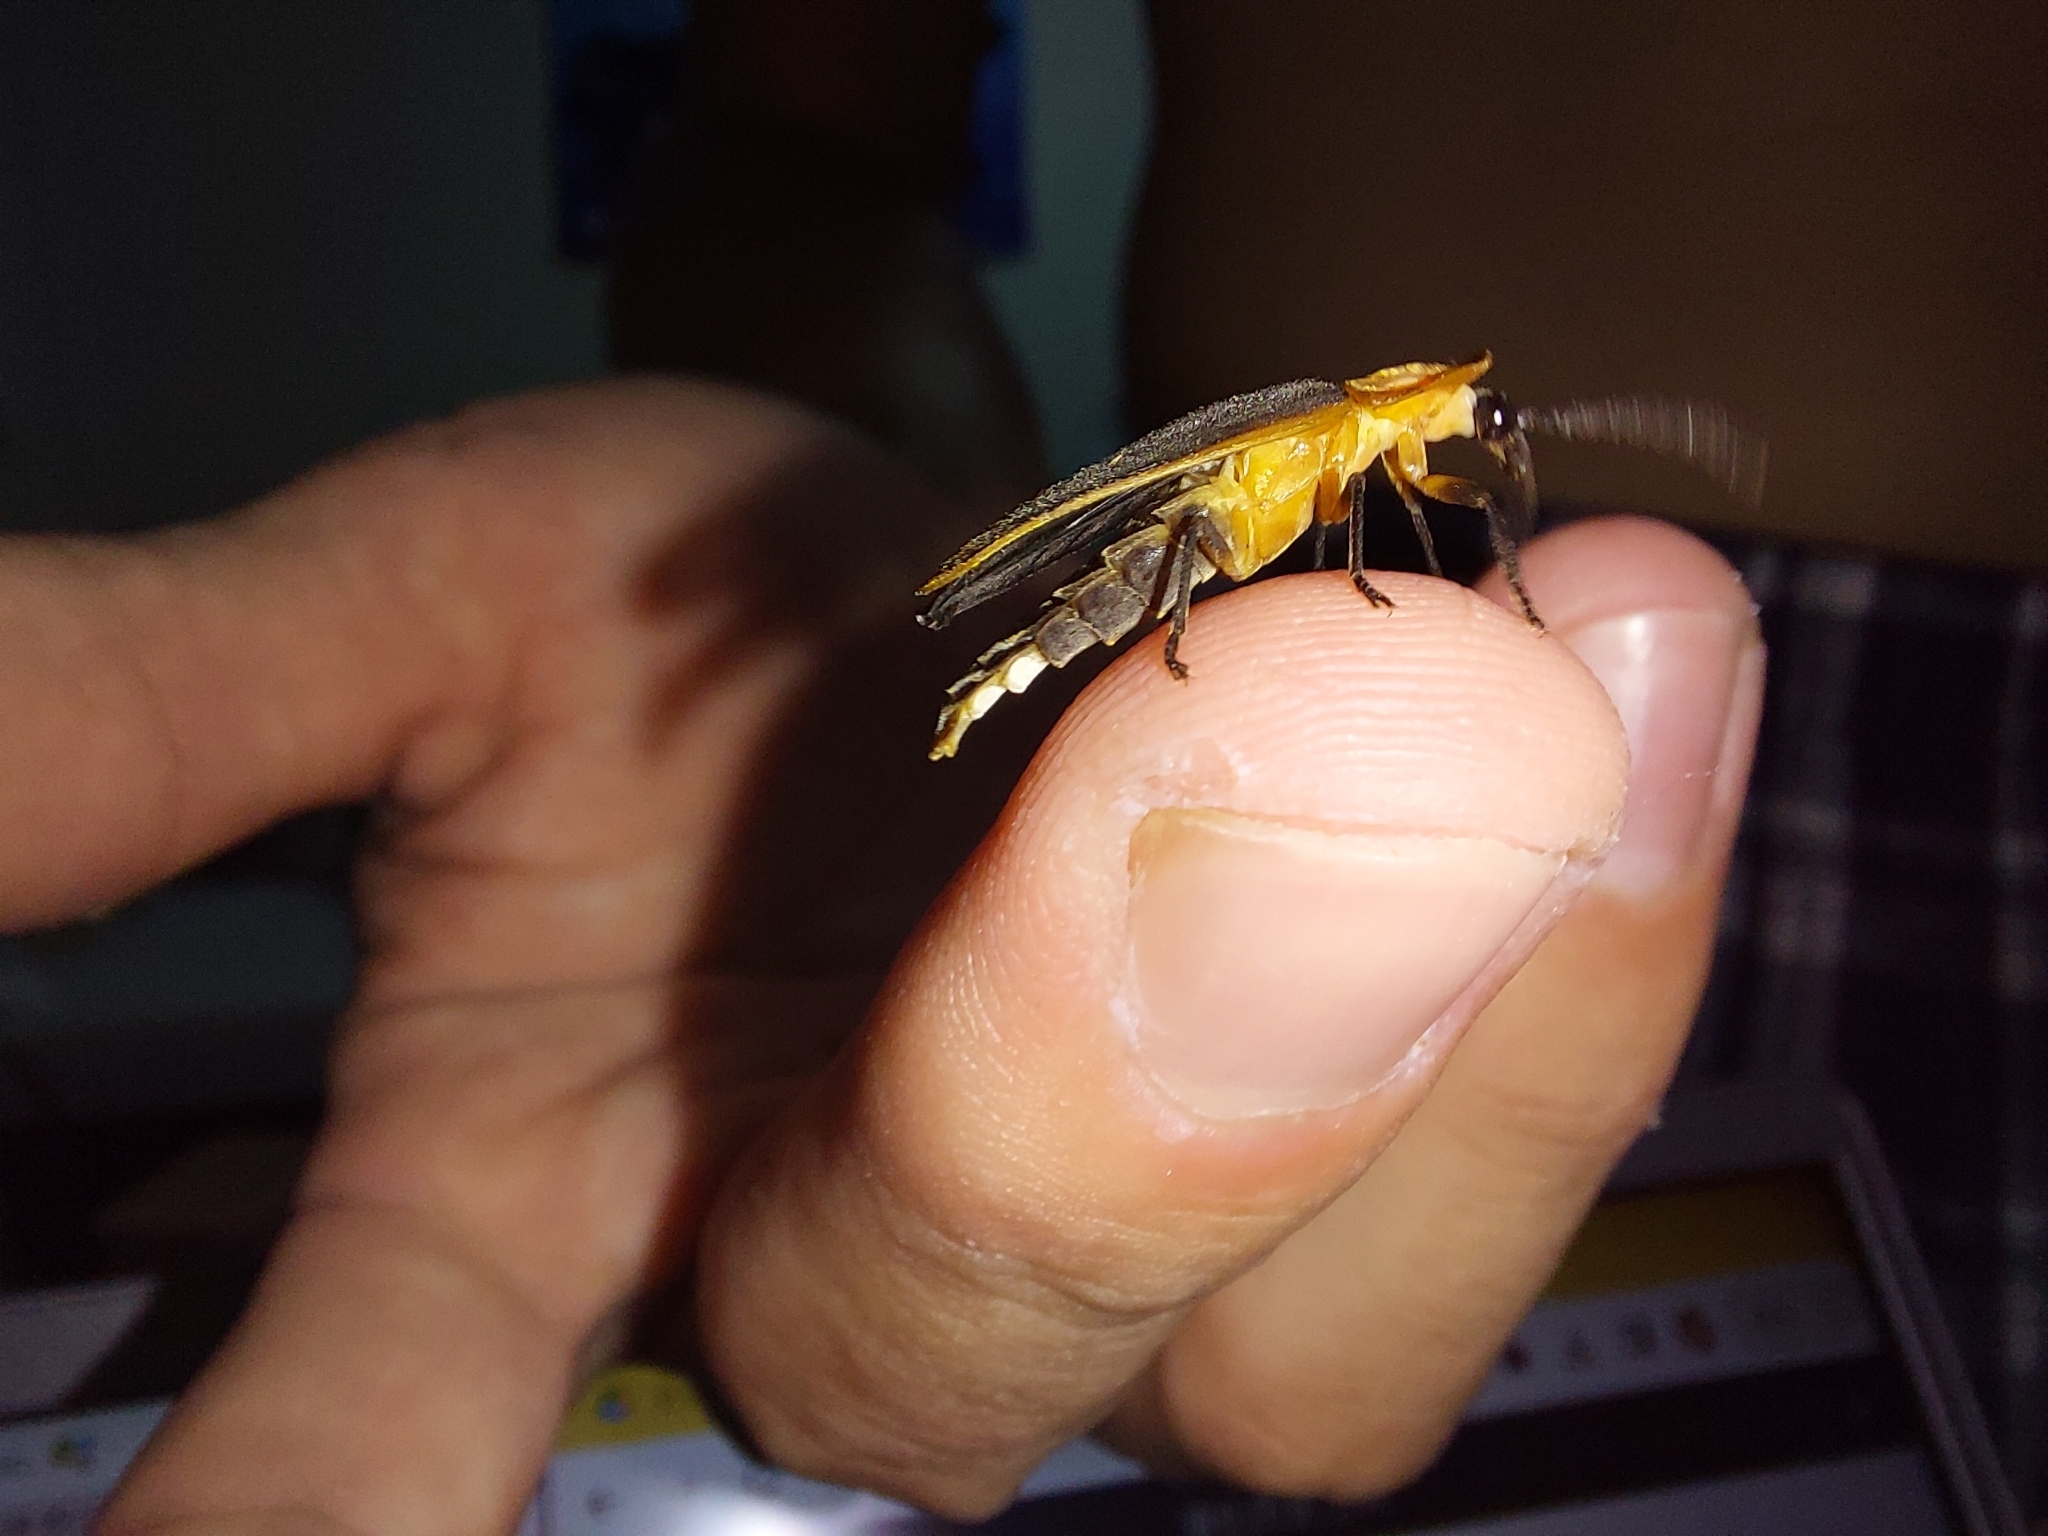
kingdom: Animalia
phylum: Arthropoda
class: Insecta
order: Coleoptera
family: Lampyridae
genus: Pyrocoelia
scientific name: Pyrocoelia analis
